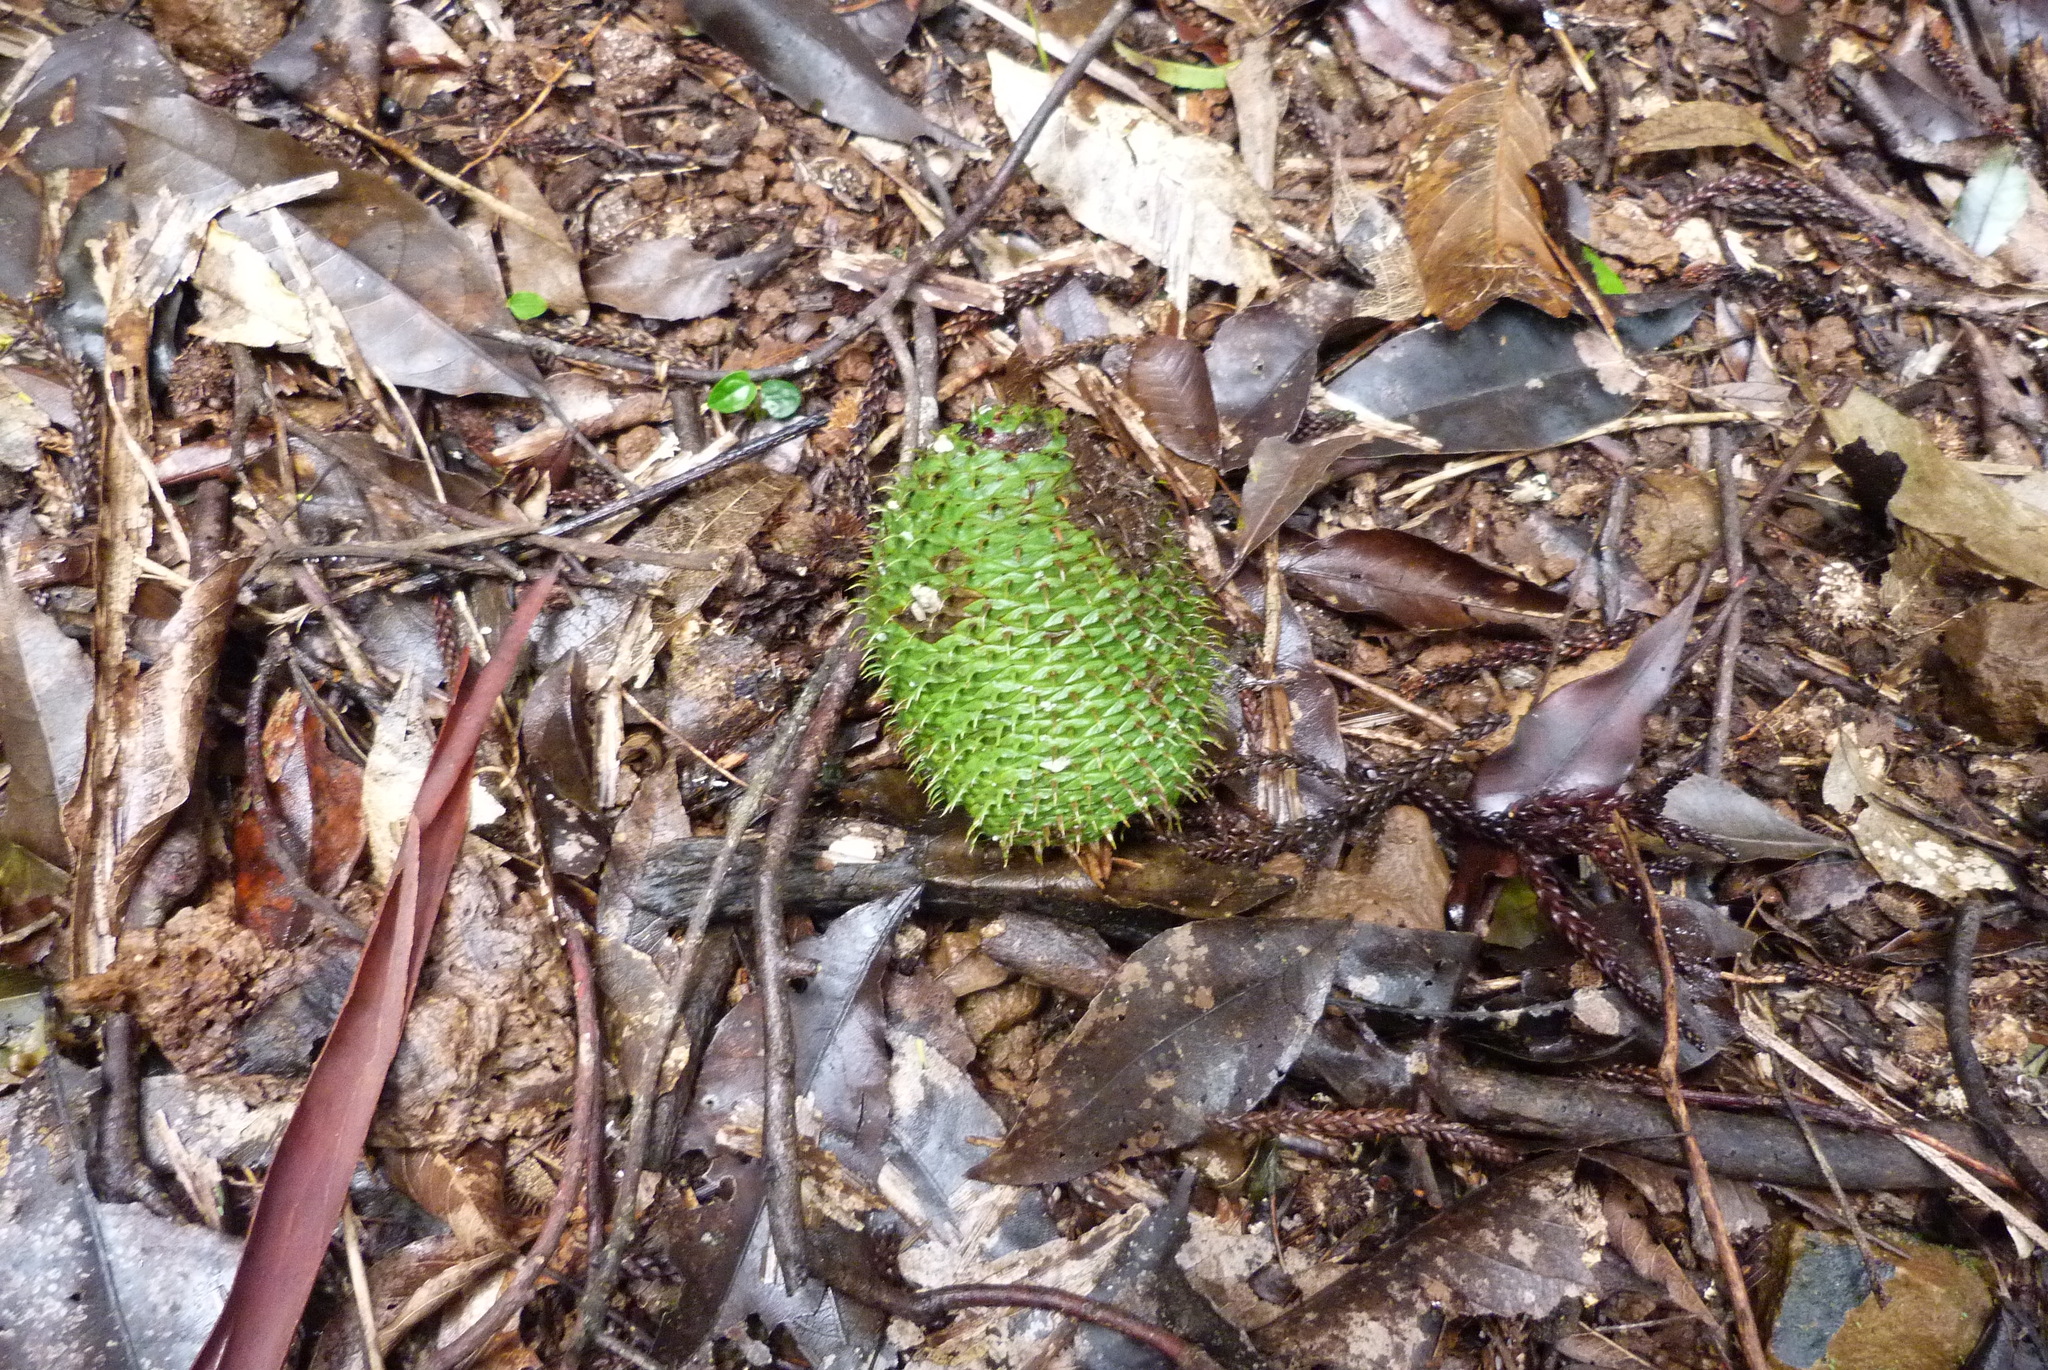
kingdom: Plantae
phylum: Tracheophyta
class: Pinopsida
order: Pinales
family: Araucariaceae
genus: Araucaria
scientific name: Araucaria cunninghamii
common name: Colonial pine
